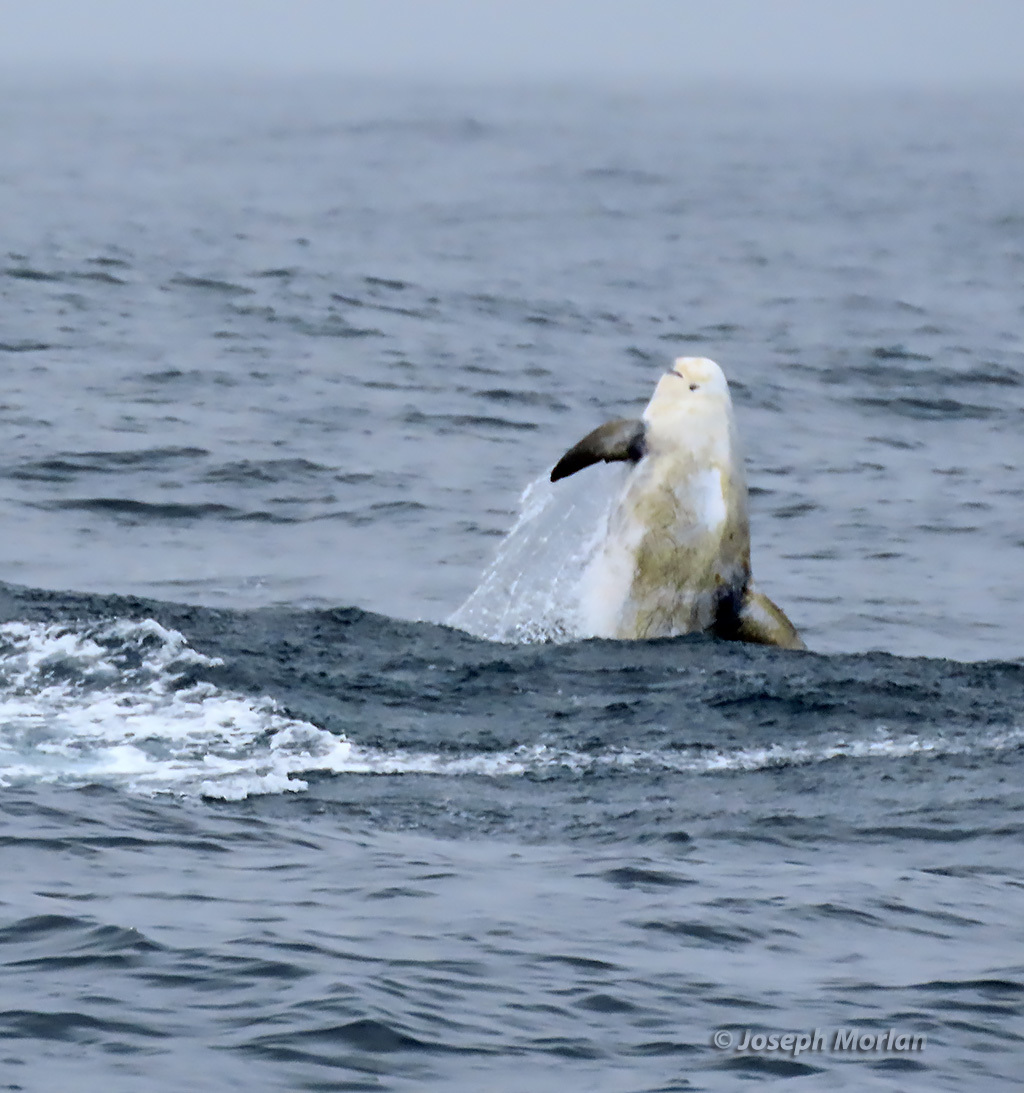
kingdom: Animalia
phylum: Chordata
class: Mammalia
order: Cetacea
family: Delphinidae
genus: Grampus
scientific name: Grampus griseus
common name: Risso's dolphin
